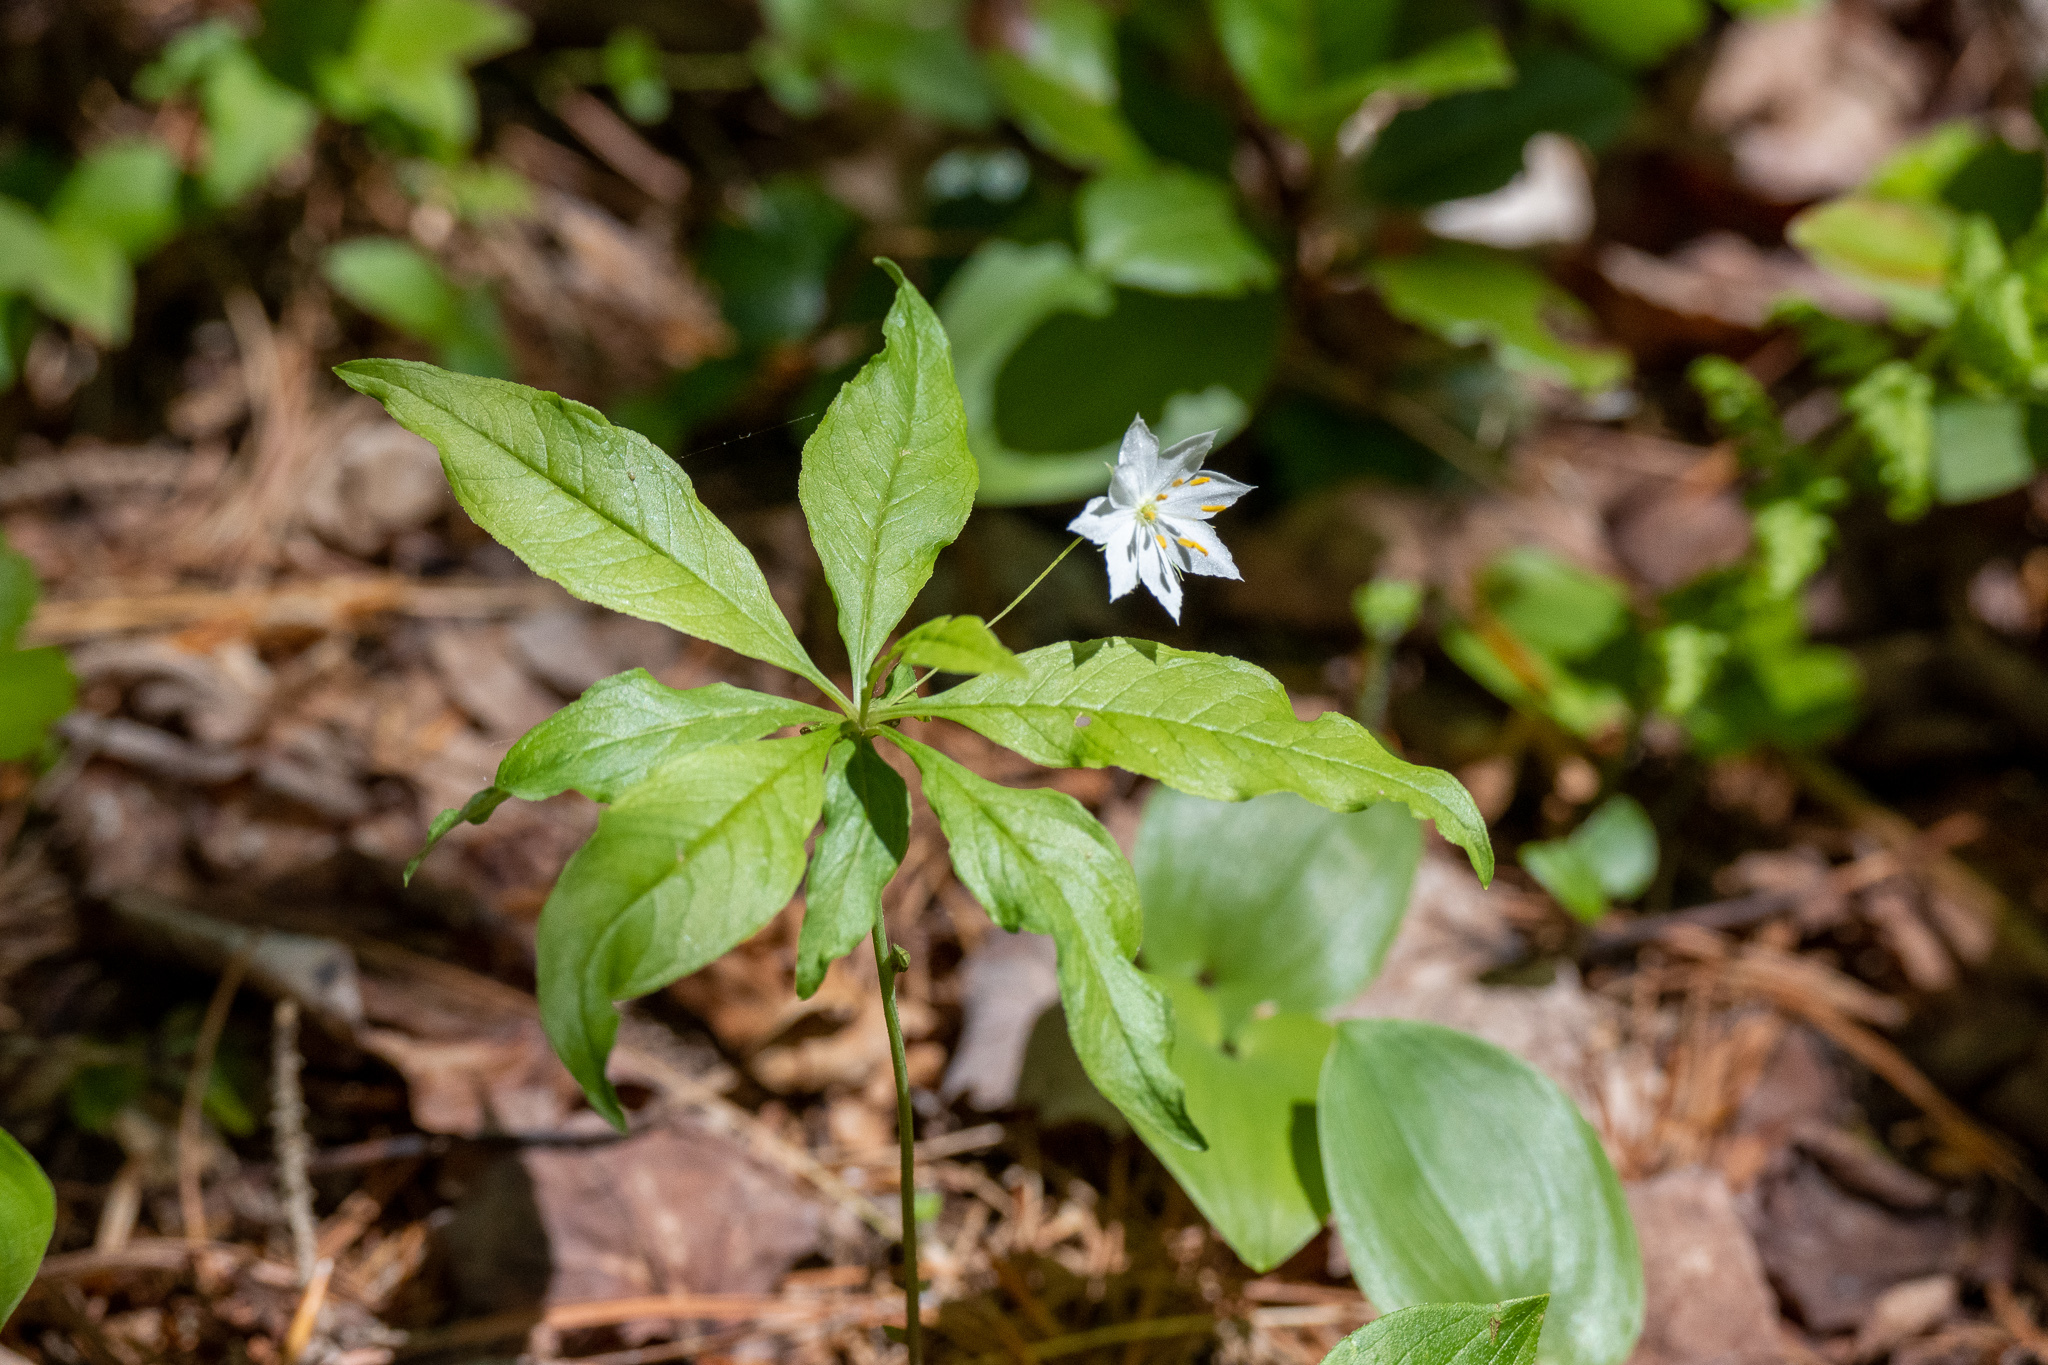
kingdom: Plantae
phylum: Tracheophyta
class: Magnoliopsida
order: Ericales
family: Primulaceae
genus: Lysimachia
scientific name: Lysimachia borealis
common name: American starflower
